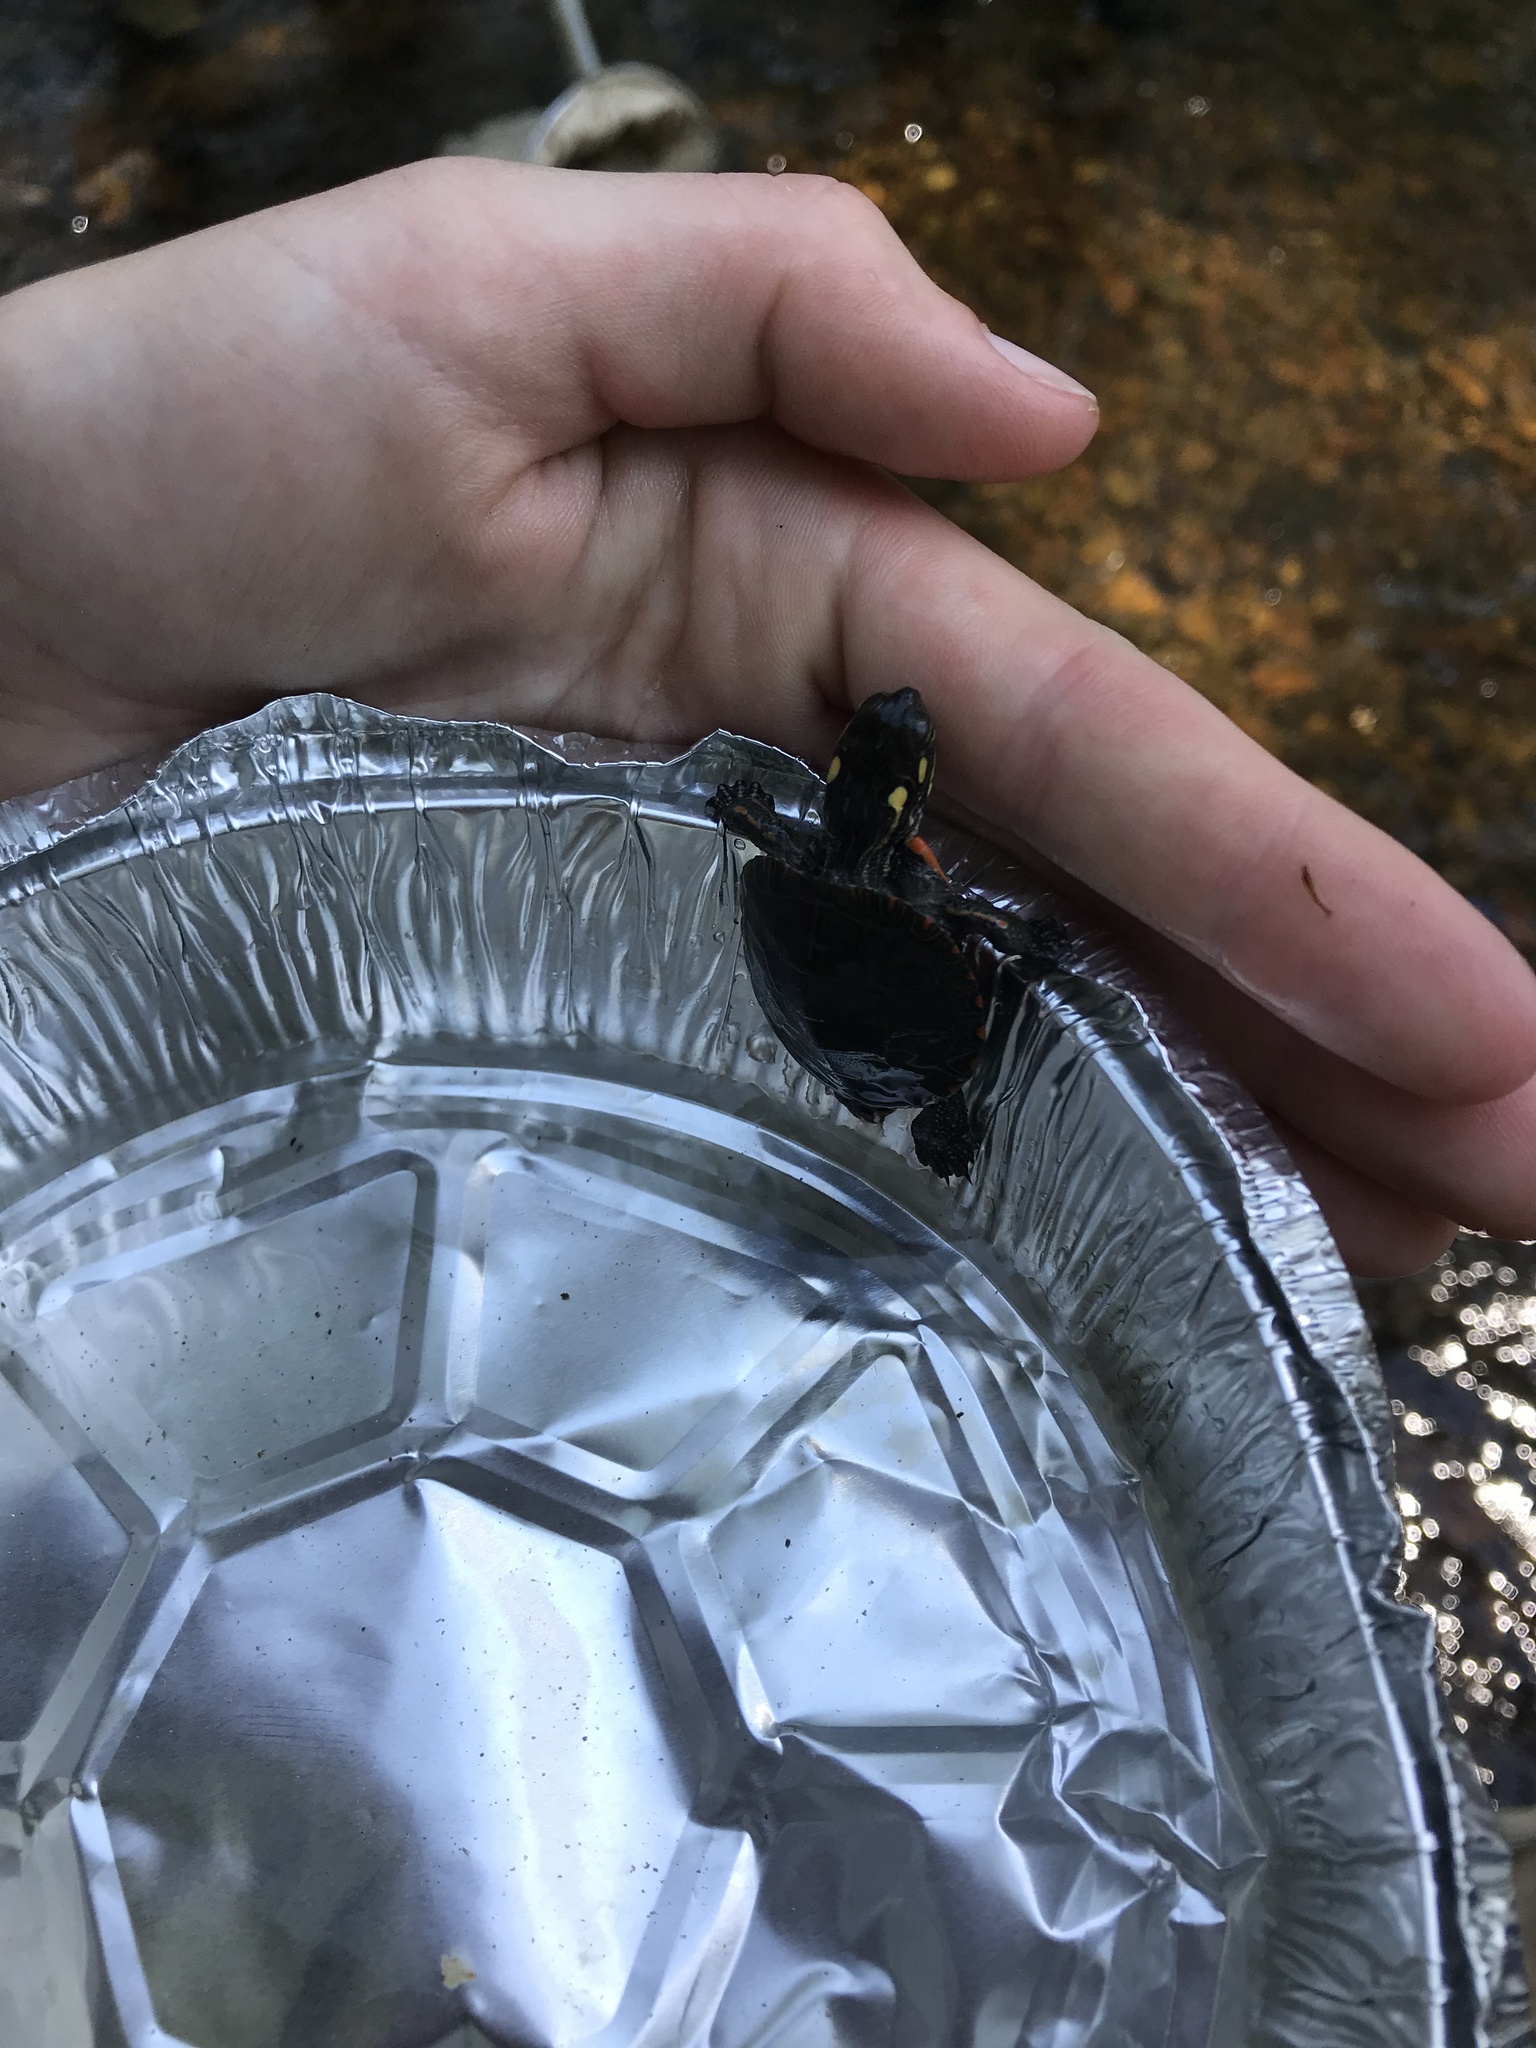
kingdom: Animalia
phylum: Chordata
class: Testudines
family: Emydidae
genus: Chrysemys
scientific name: Chrysemys picta
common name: Painted turtle
